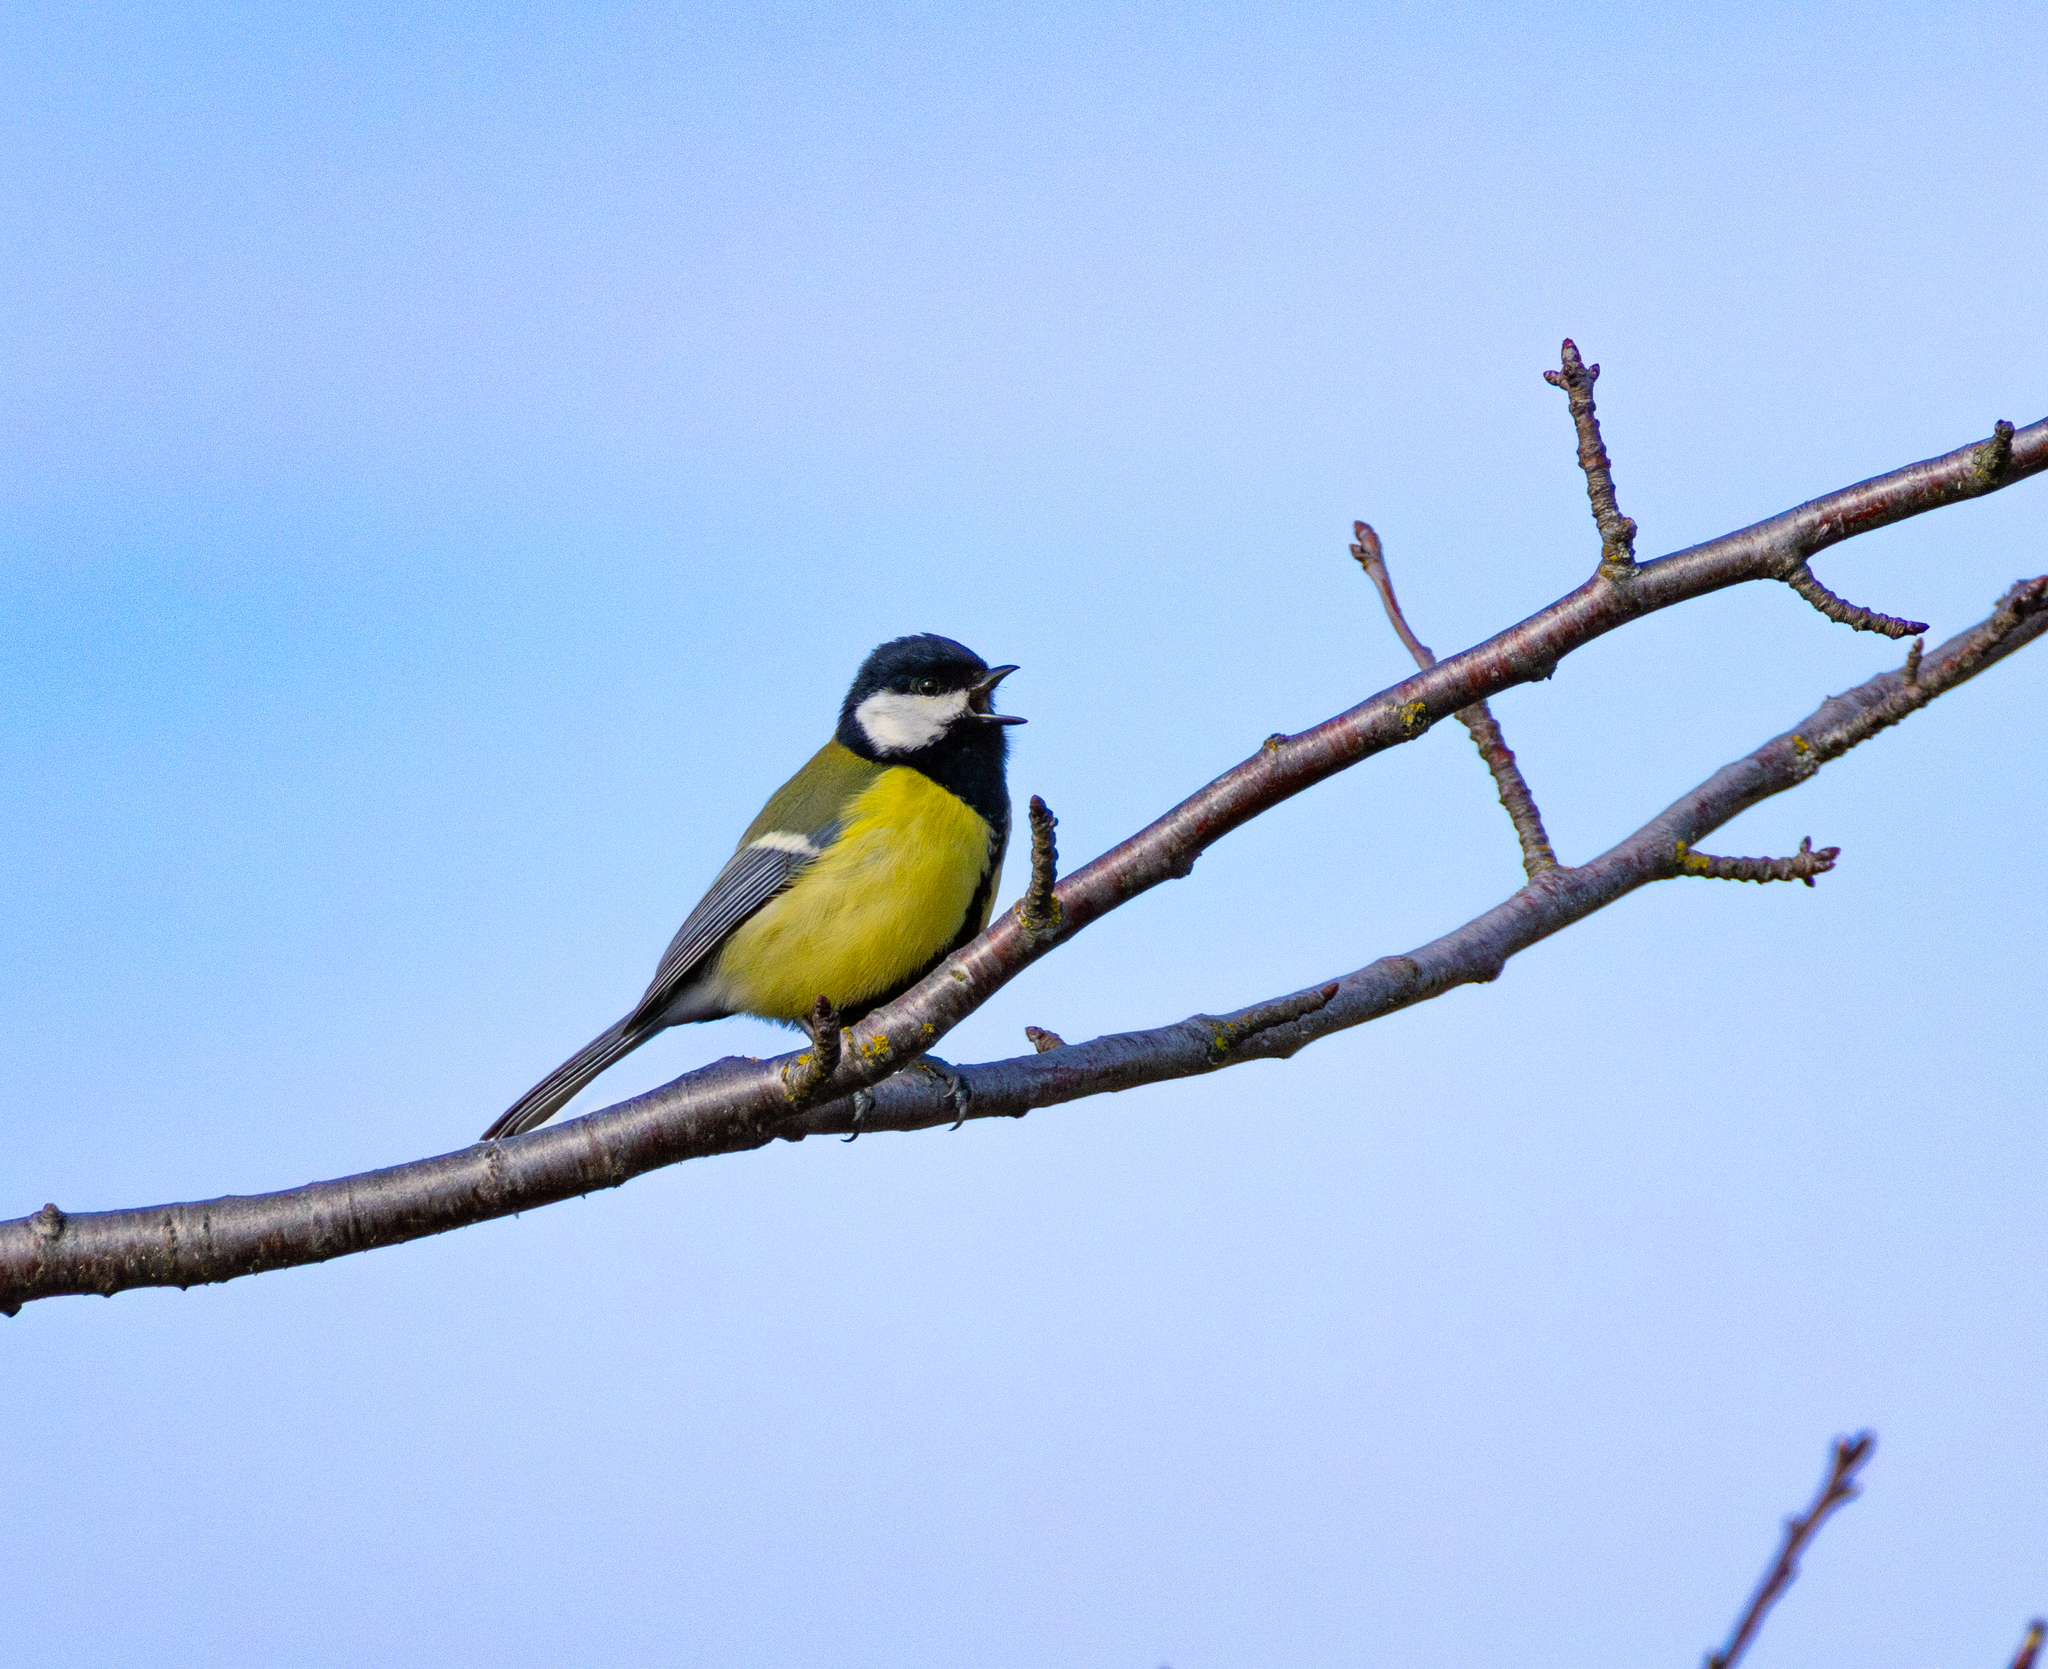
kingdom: Animalia
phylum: Chordata
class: Aves
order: Passeriformes
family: Paridae
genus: Parus
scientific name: Parus major
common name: Great tit
